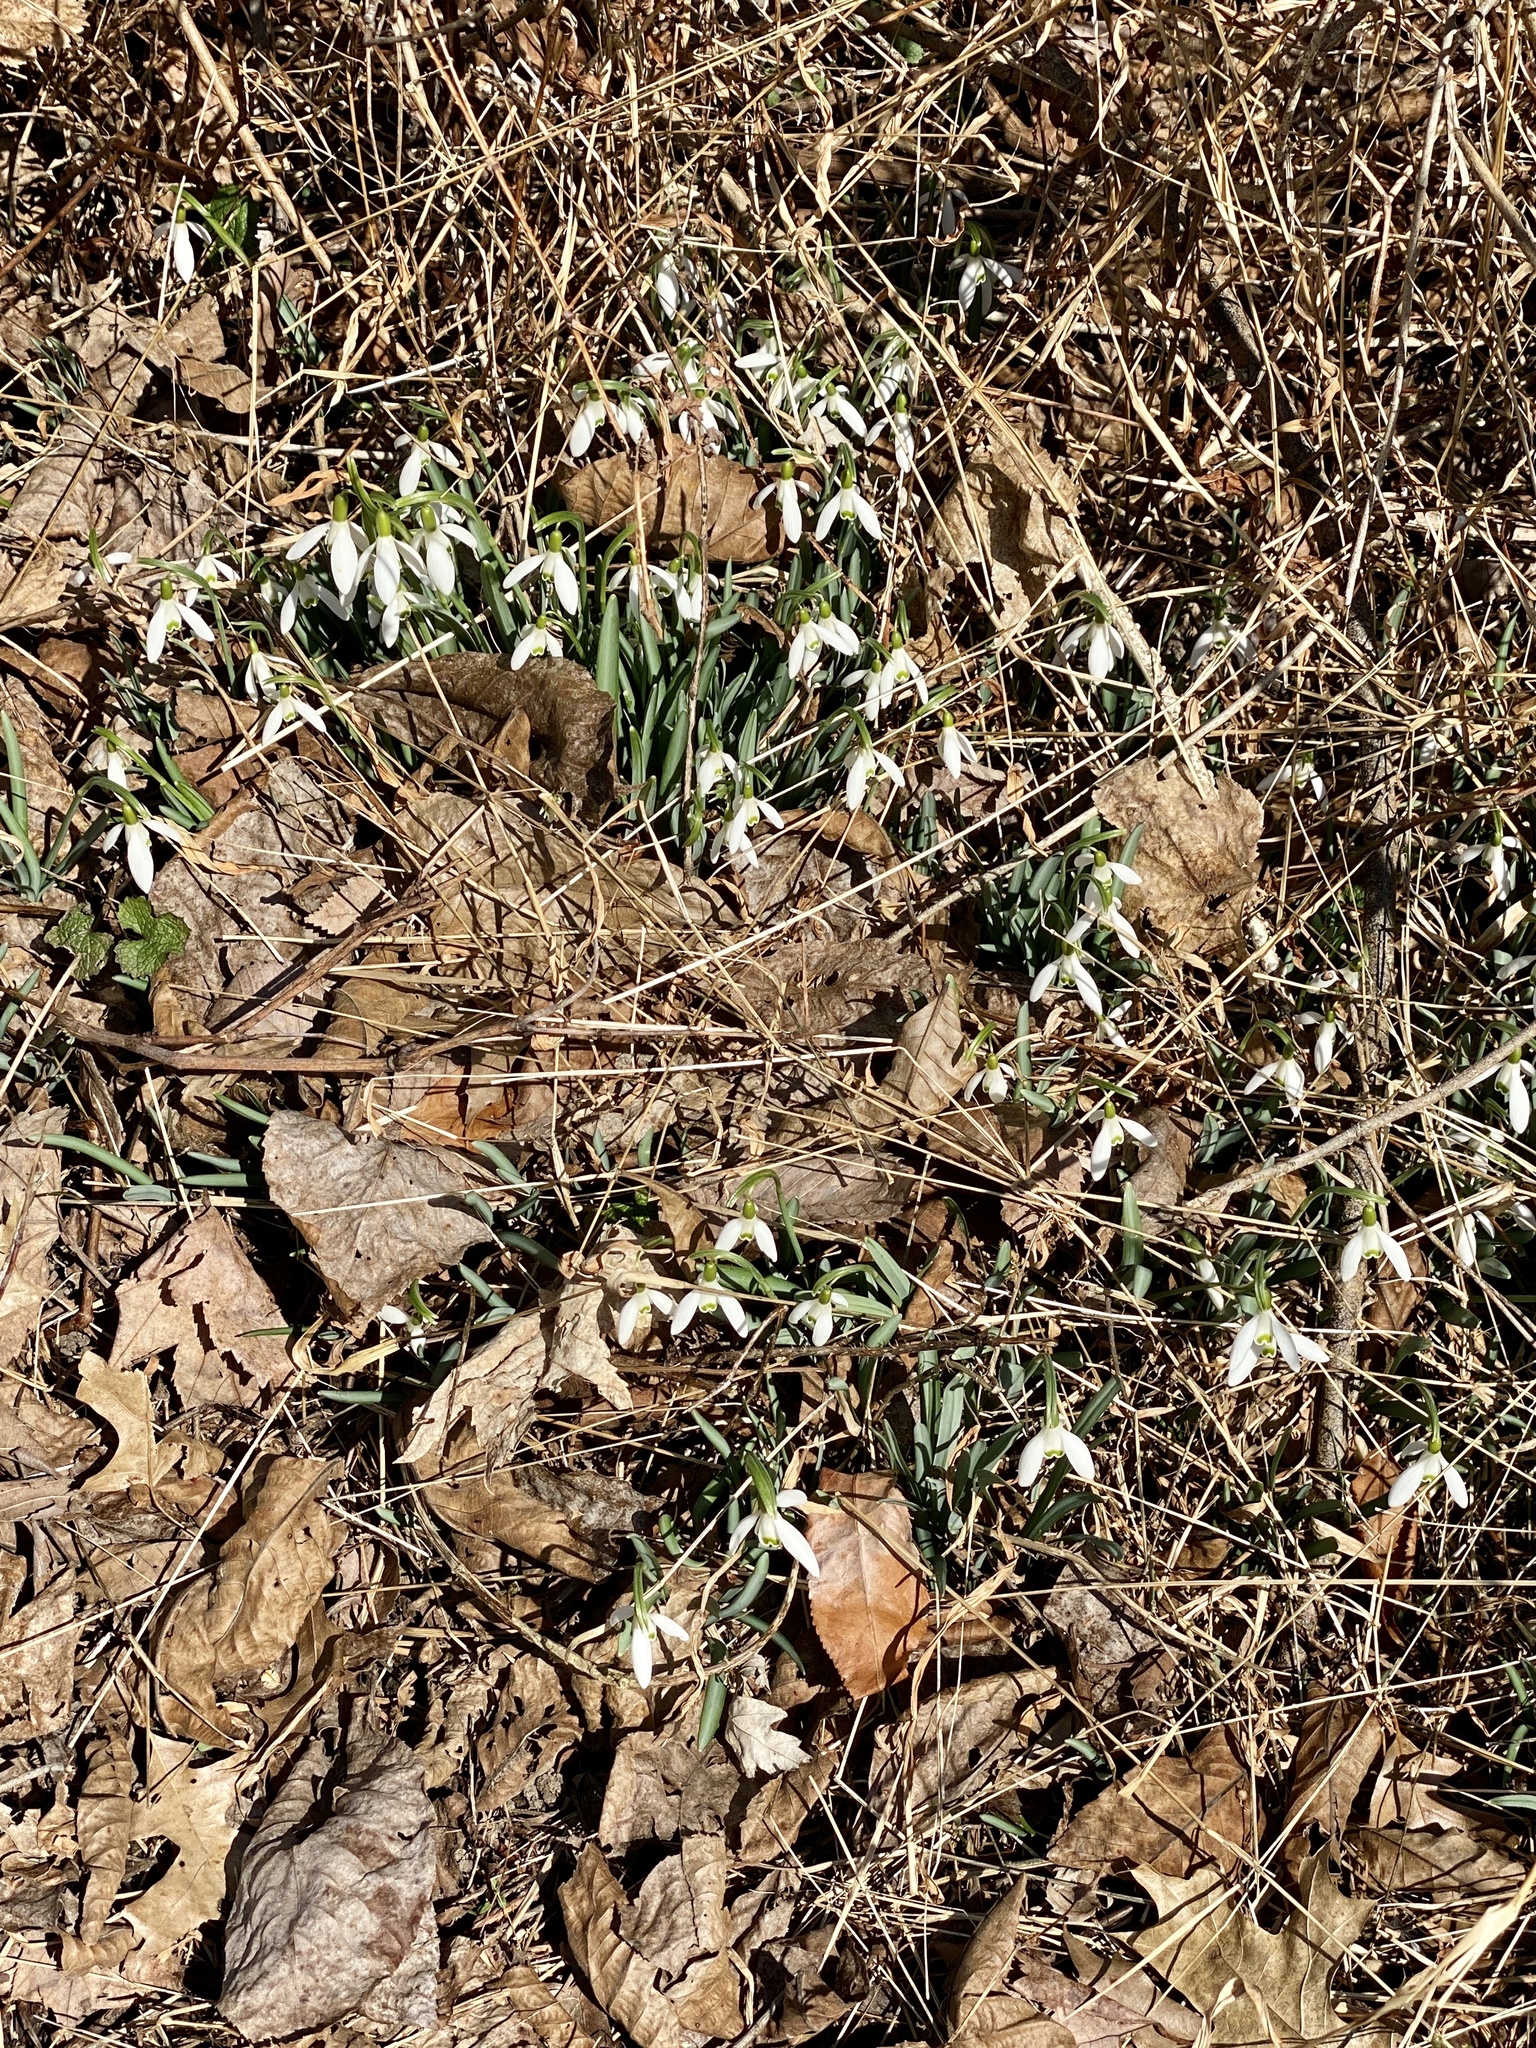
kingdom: Plantae
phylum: Tracheophyta
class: Liliopsida
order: Asparagales
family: Amaryllidaceae
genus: Galanthus
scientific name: Galanthus nivalis
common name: Snowdrop
